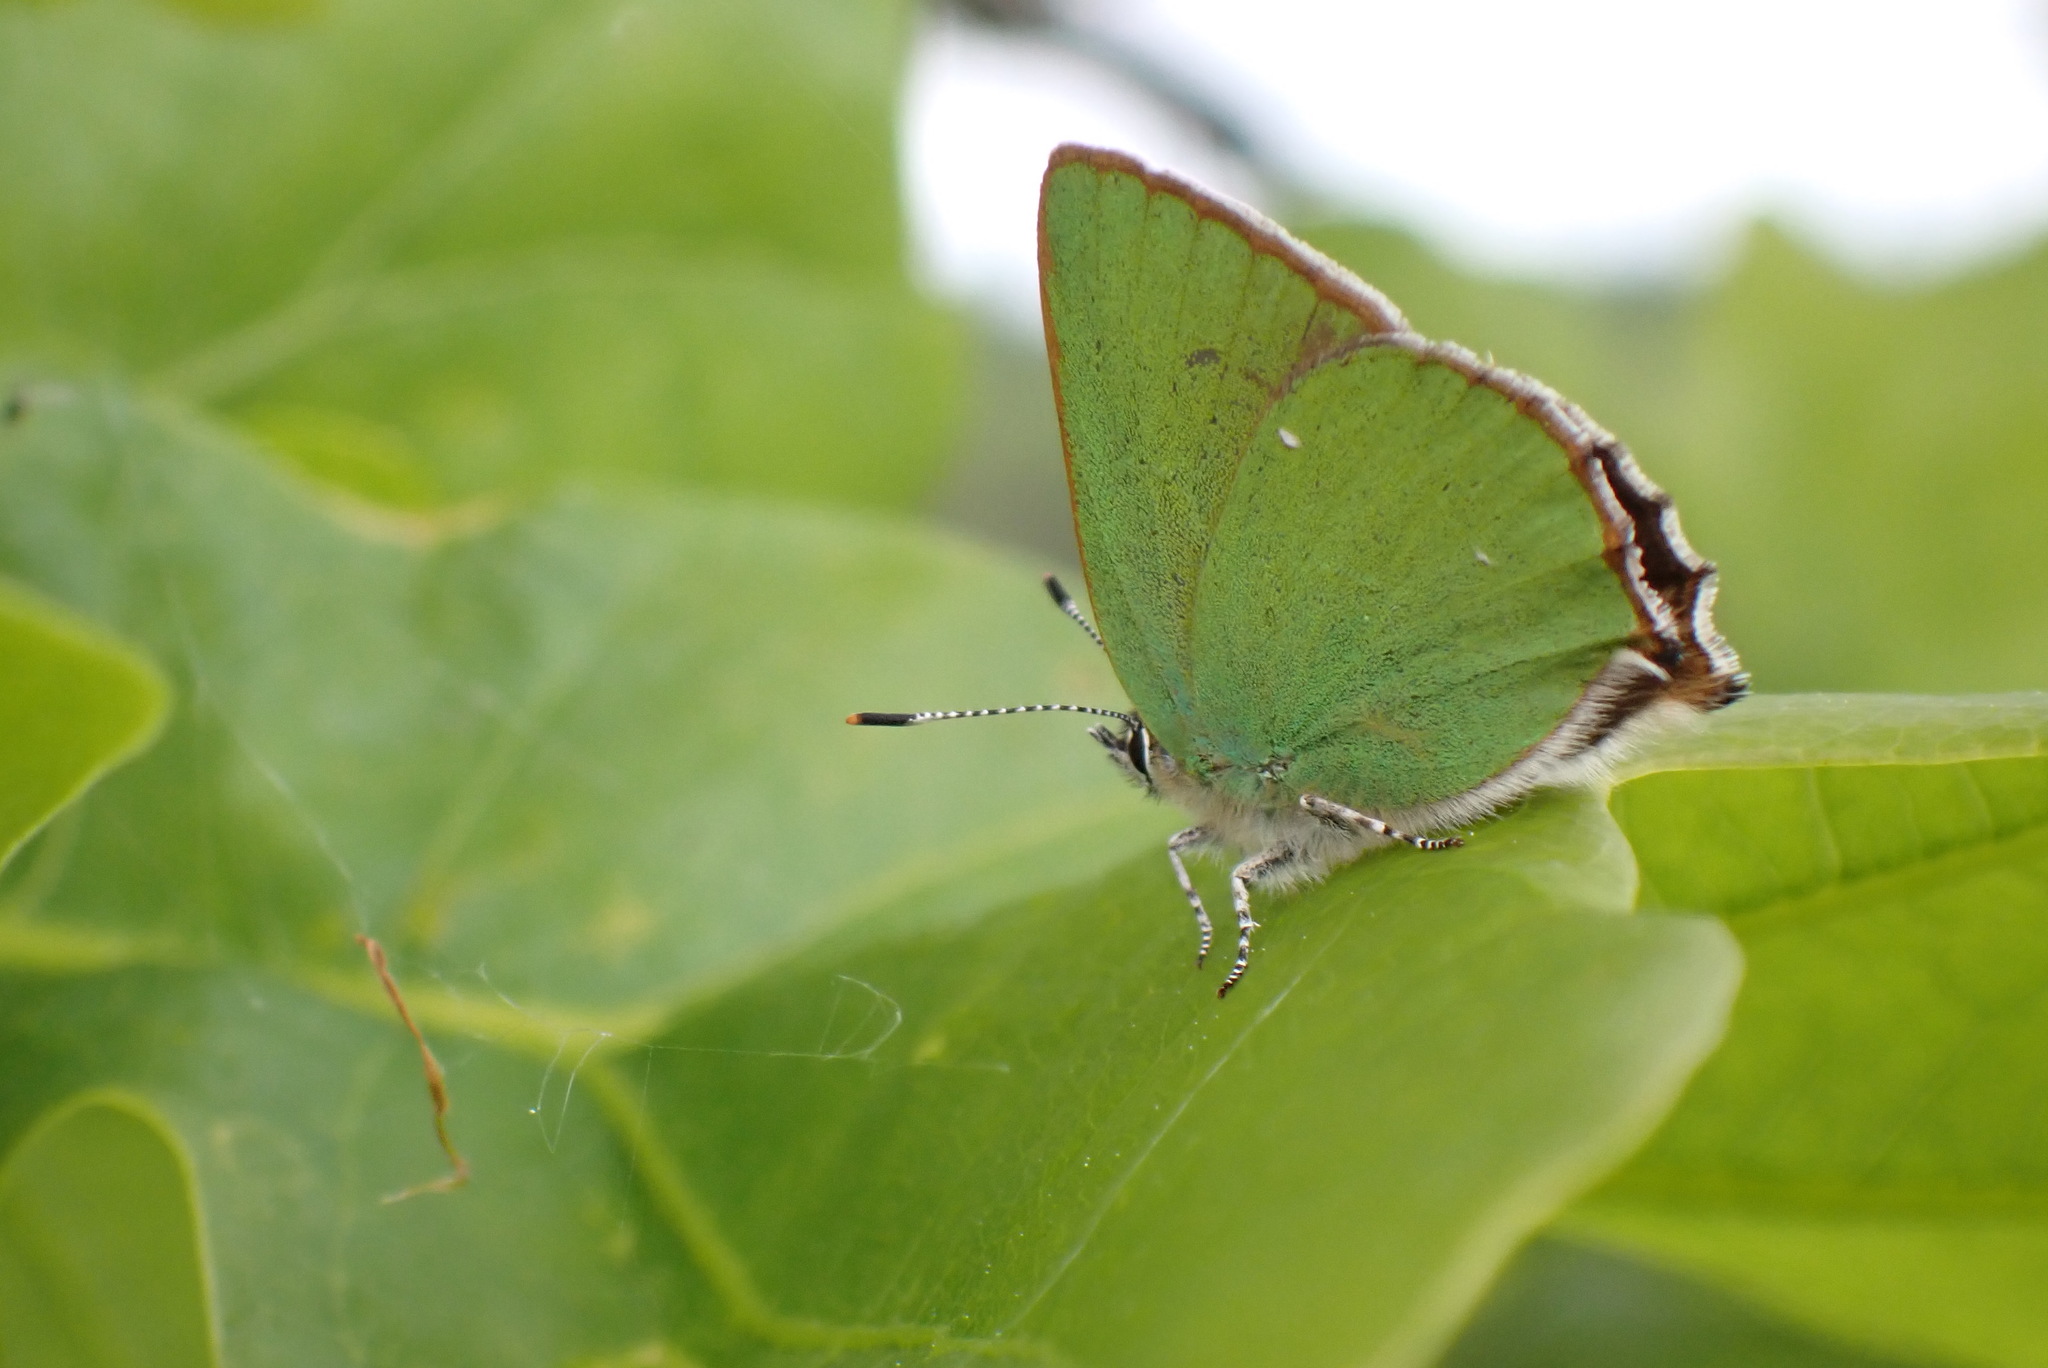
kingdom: Animalia
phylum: Arthropoda
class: Insecta
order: Lepidoptera
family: Lycaenidae
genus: Callophrys
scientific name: Callophrys rubi
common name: Green hairstreak
